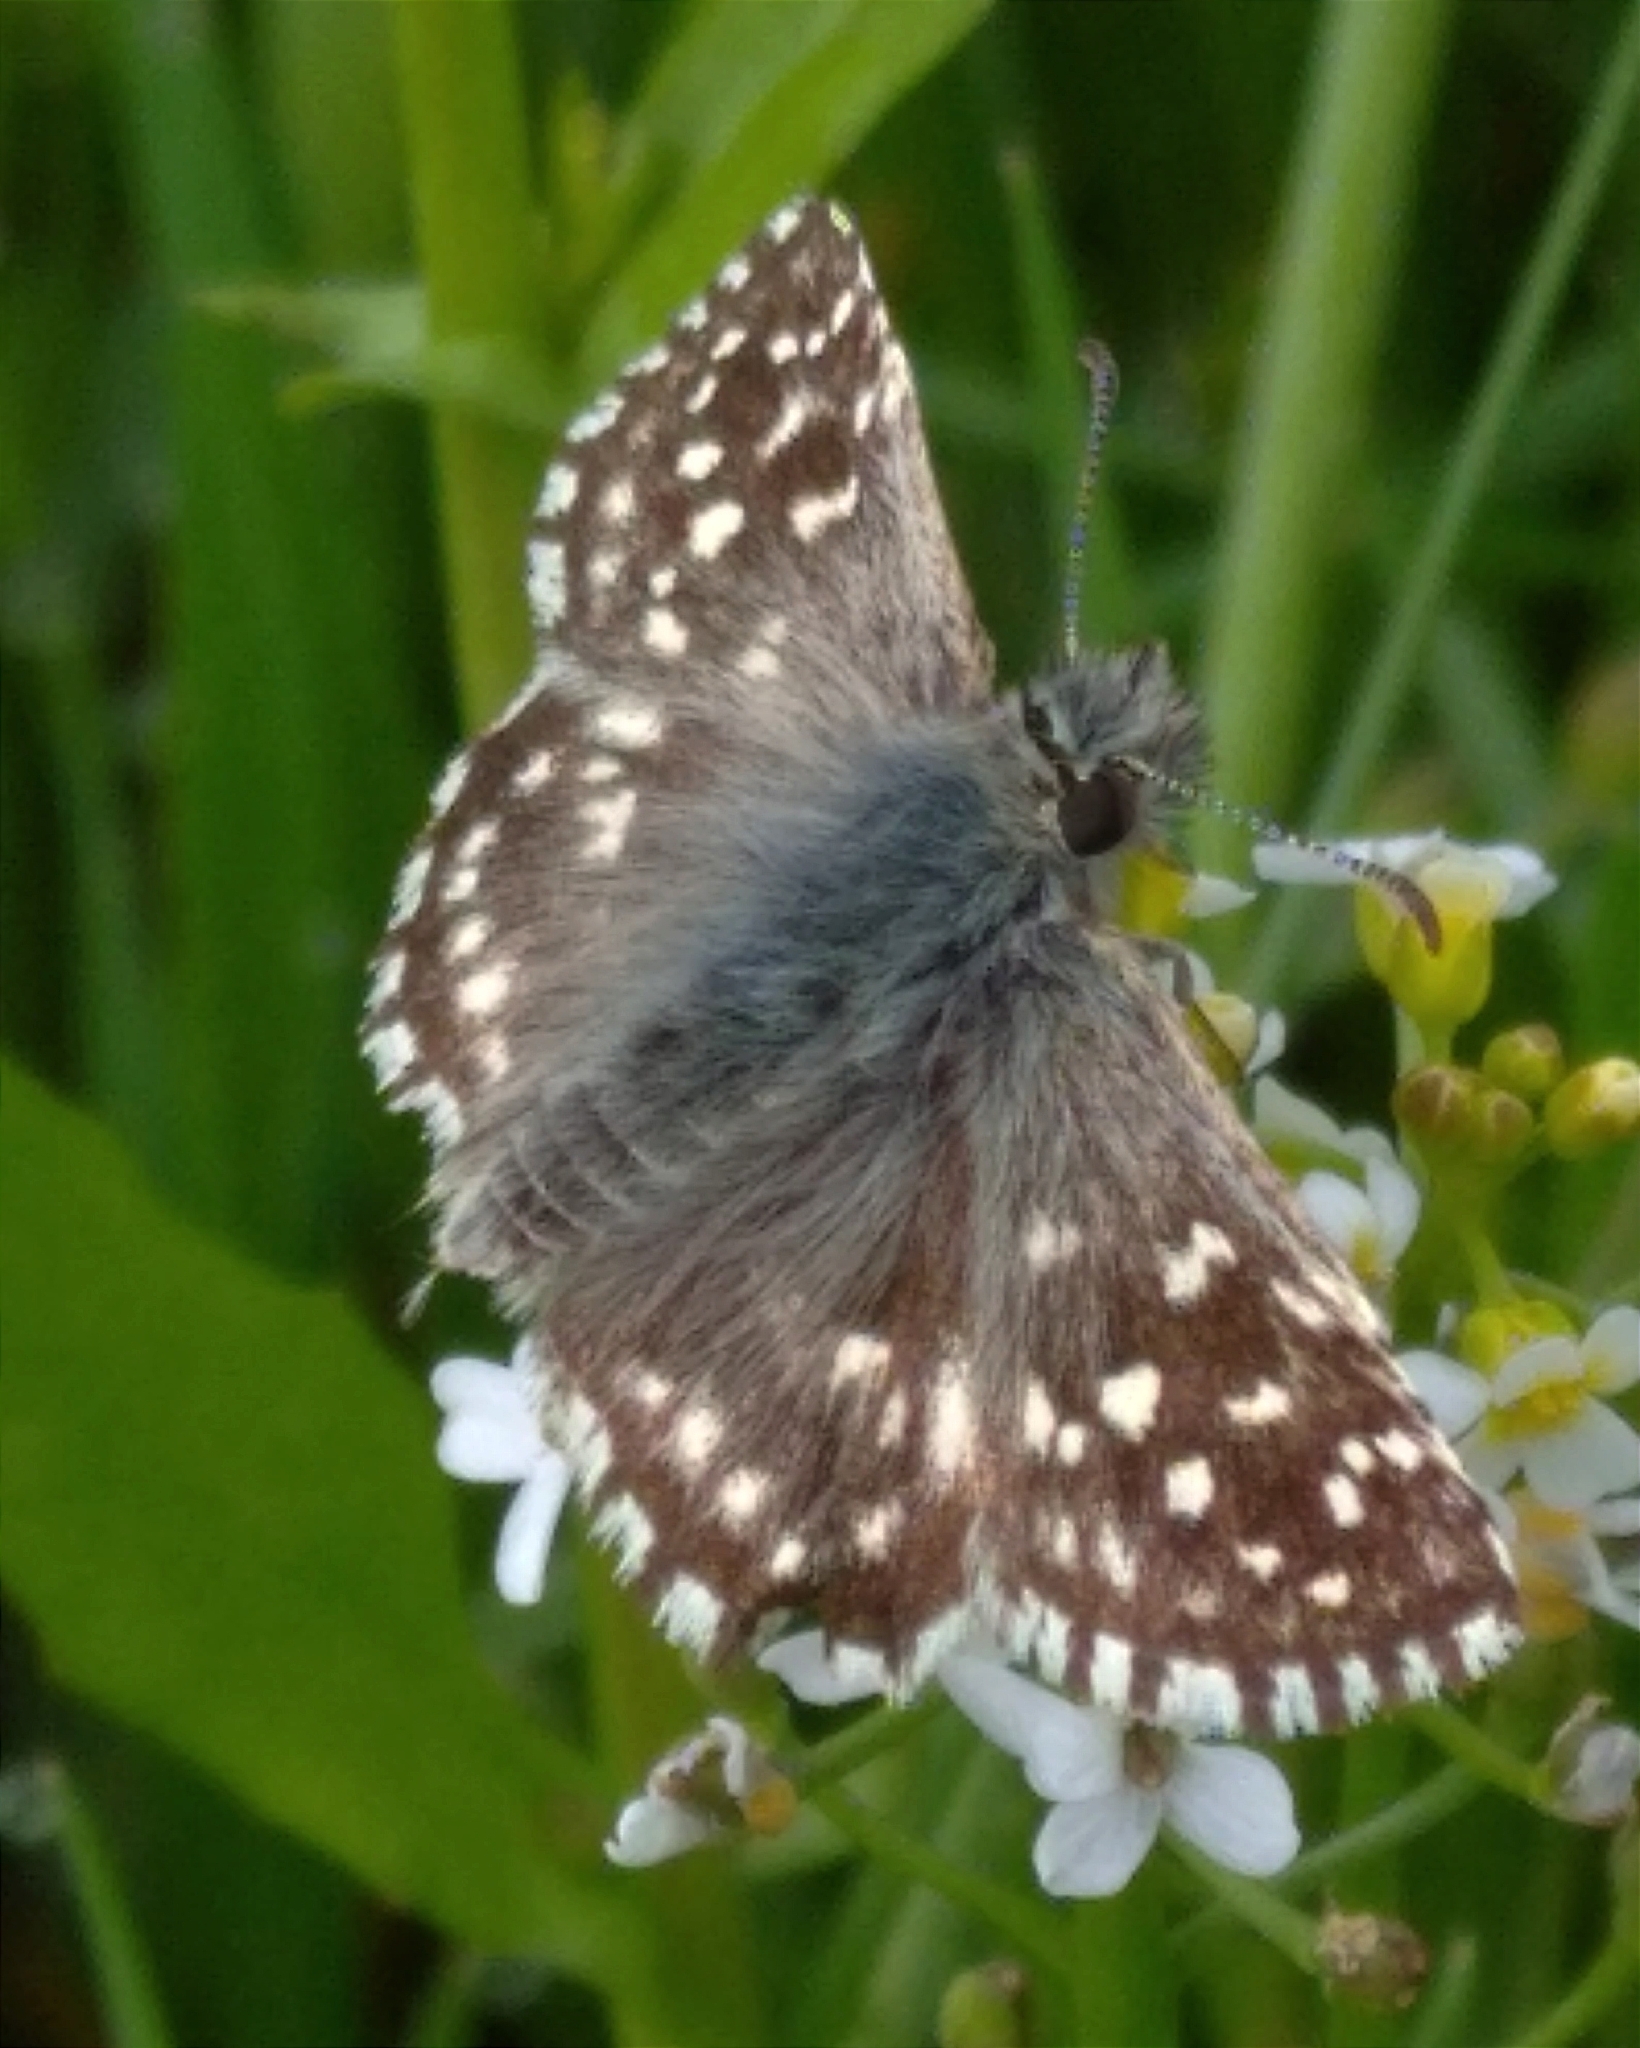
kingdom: Animalia
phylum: Arthropoda
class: Insecta
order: Lepidoptera
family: Hesperiidae
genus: Pyrgus
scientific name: Pyrgus malvae
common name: Grizzled skipper
